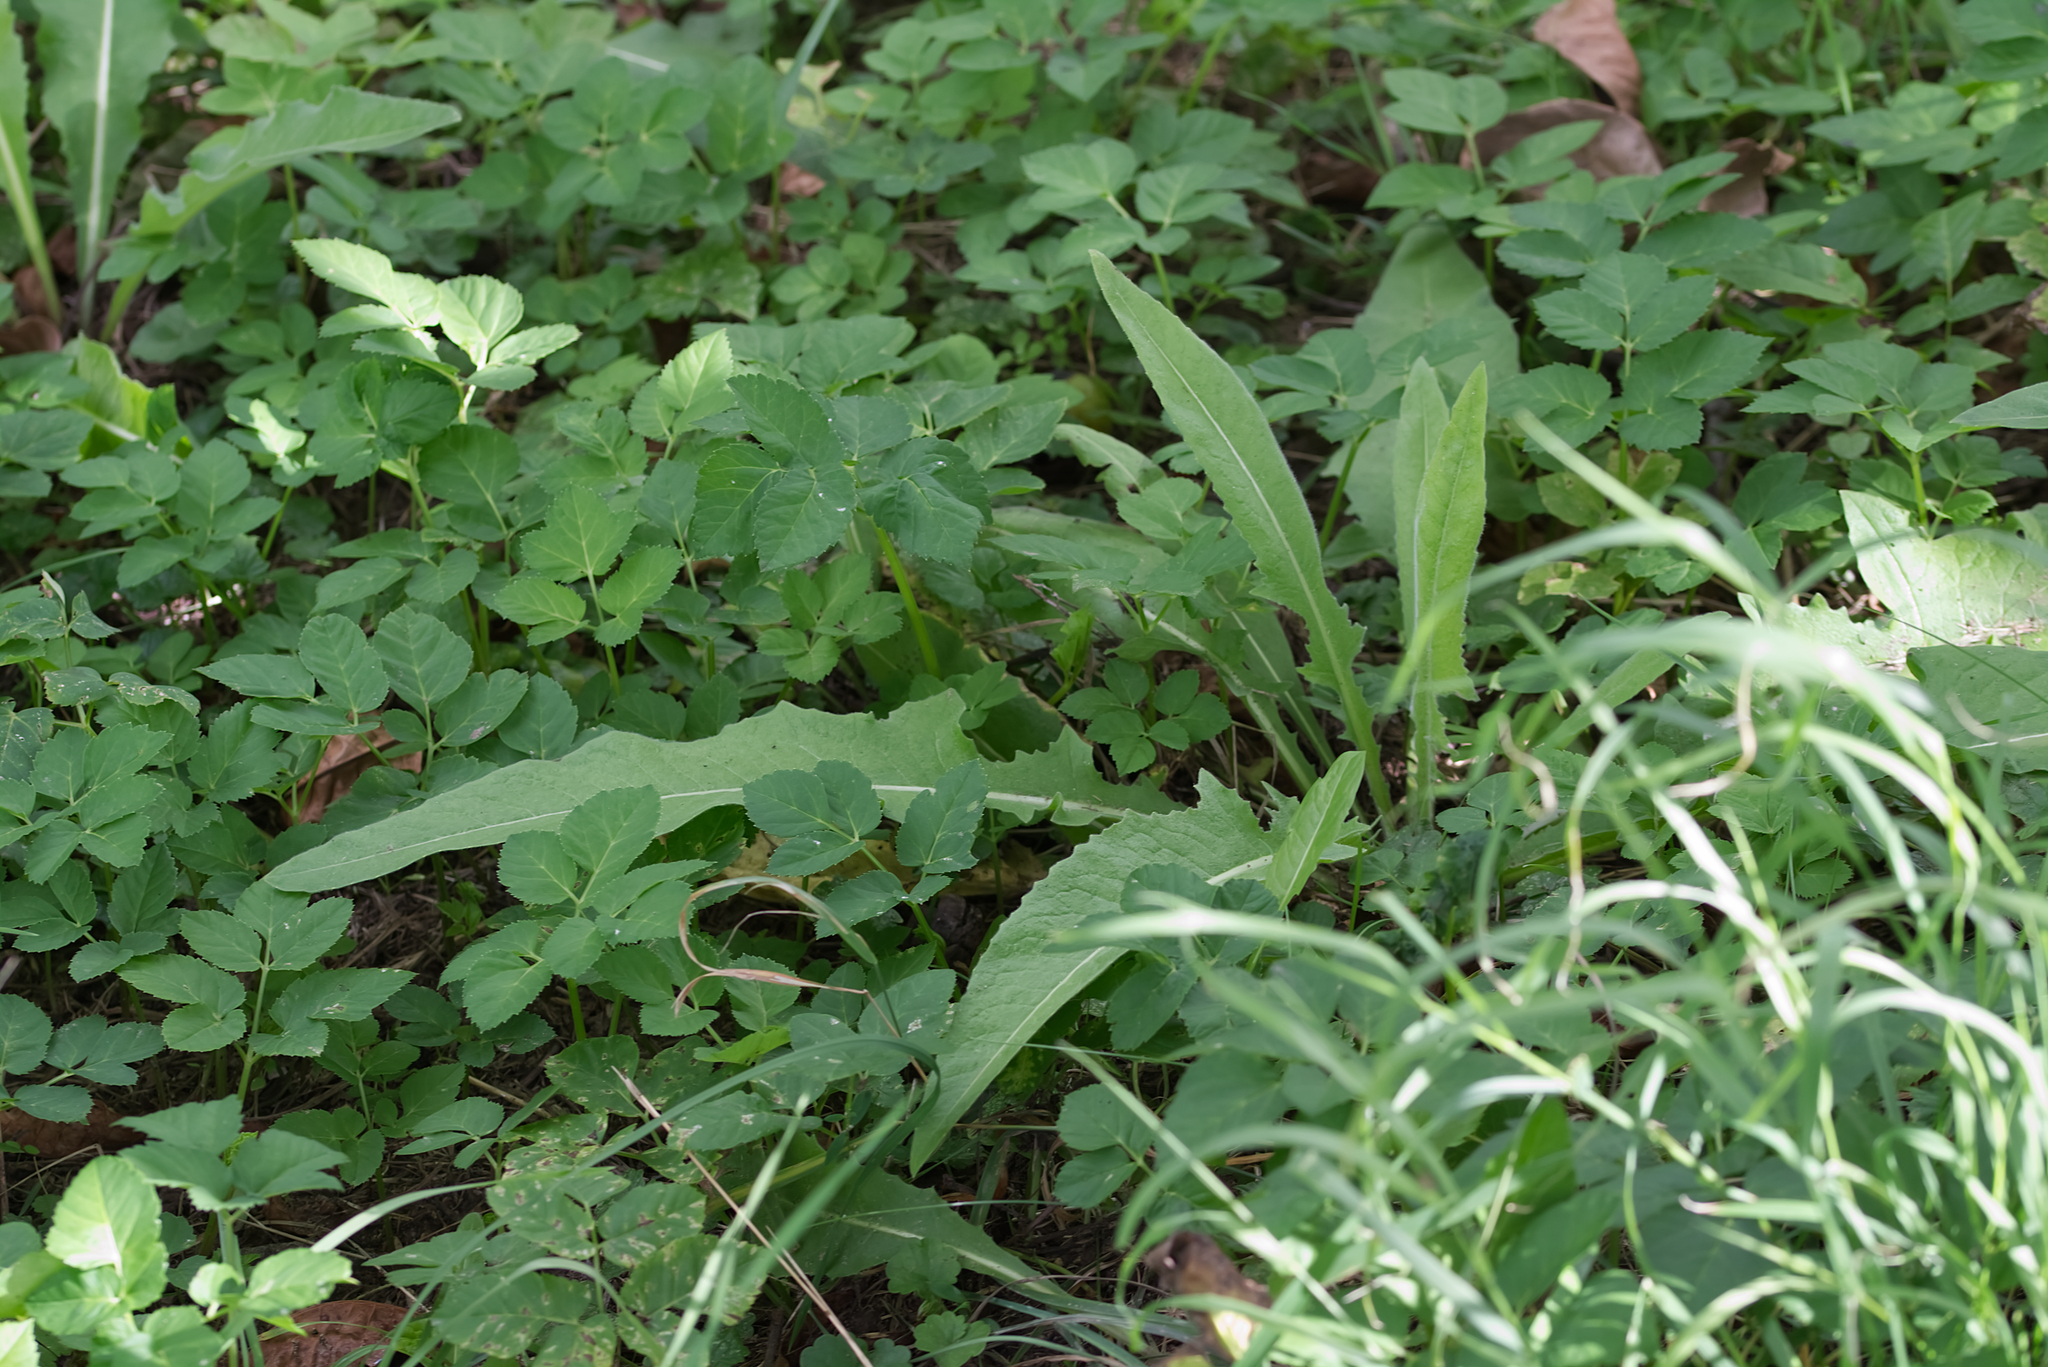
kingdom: Plantae
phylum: Tracheophyta
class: Magnoliopsida
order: Brassicales
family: Brassicaceae
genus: Bunias
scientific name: Bunias orientalis
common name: Warty-cabbage
